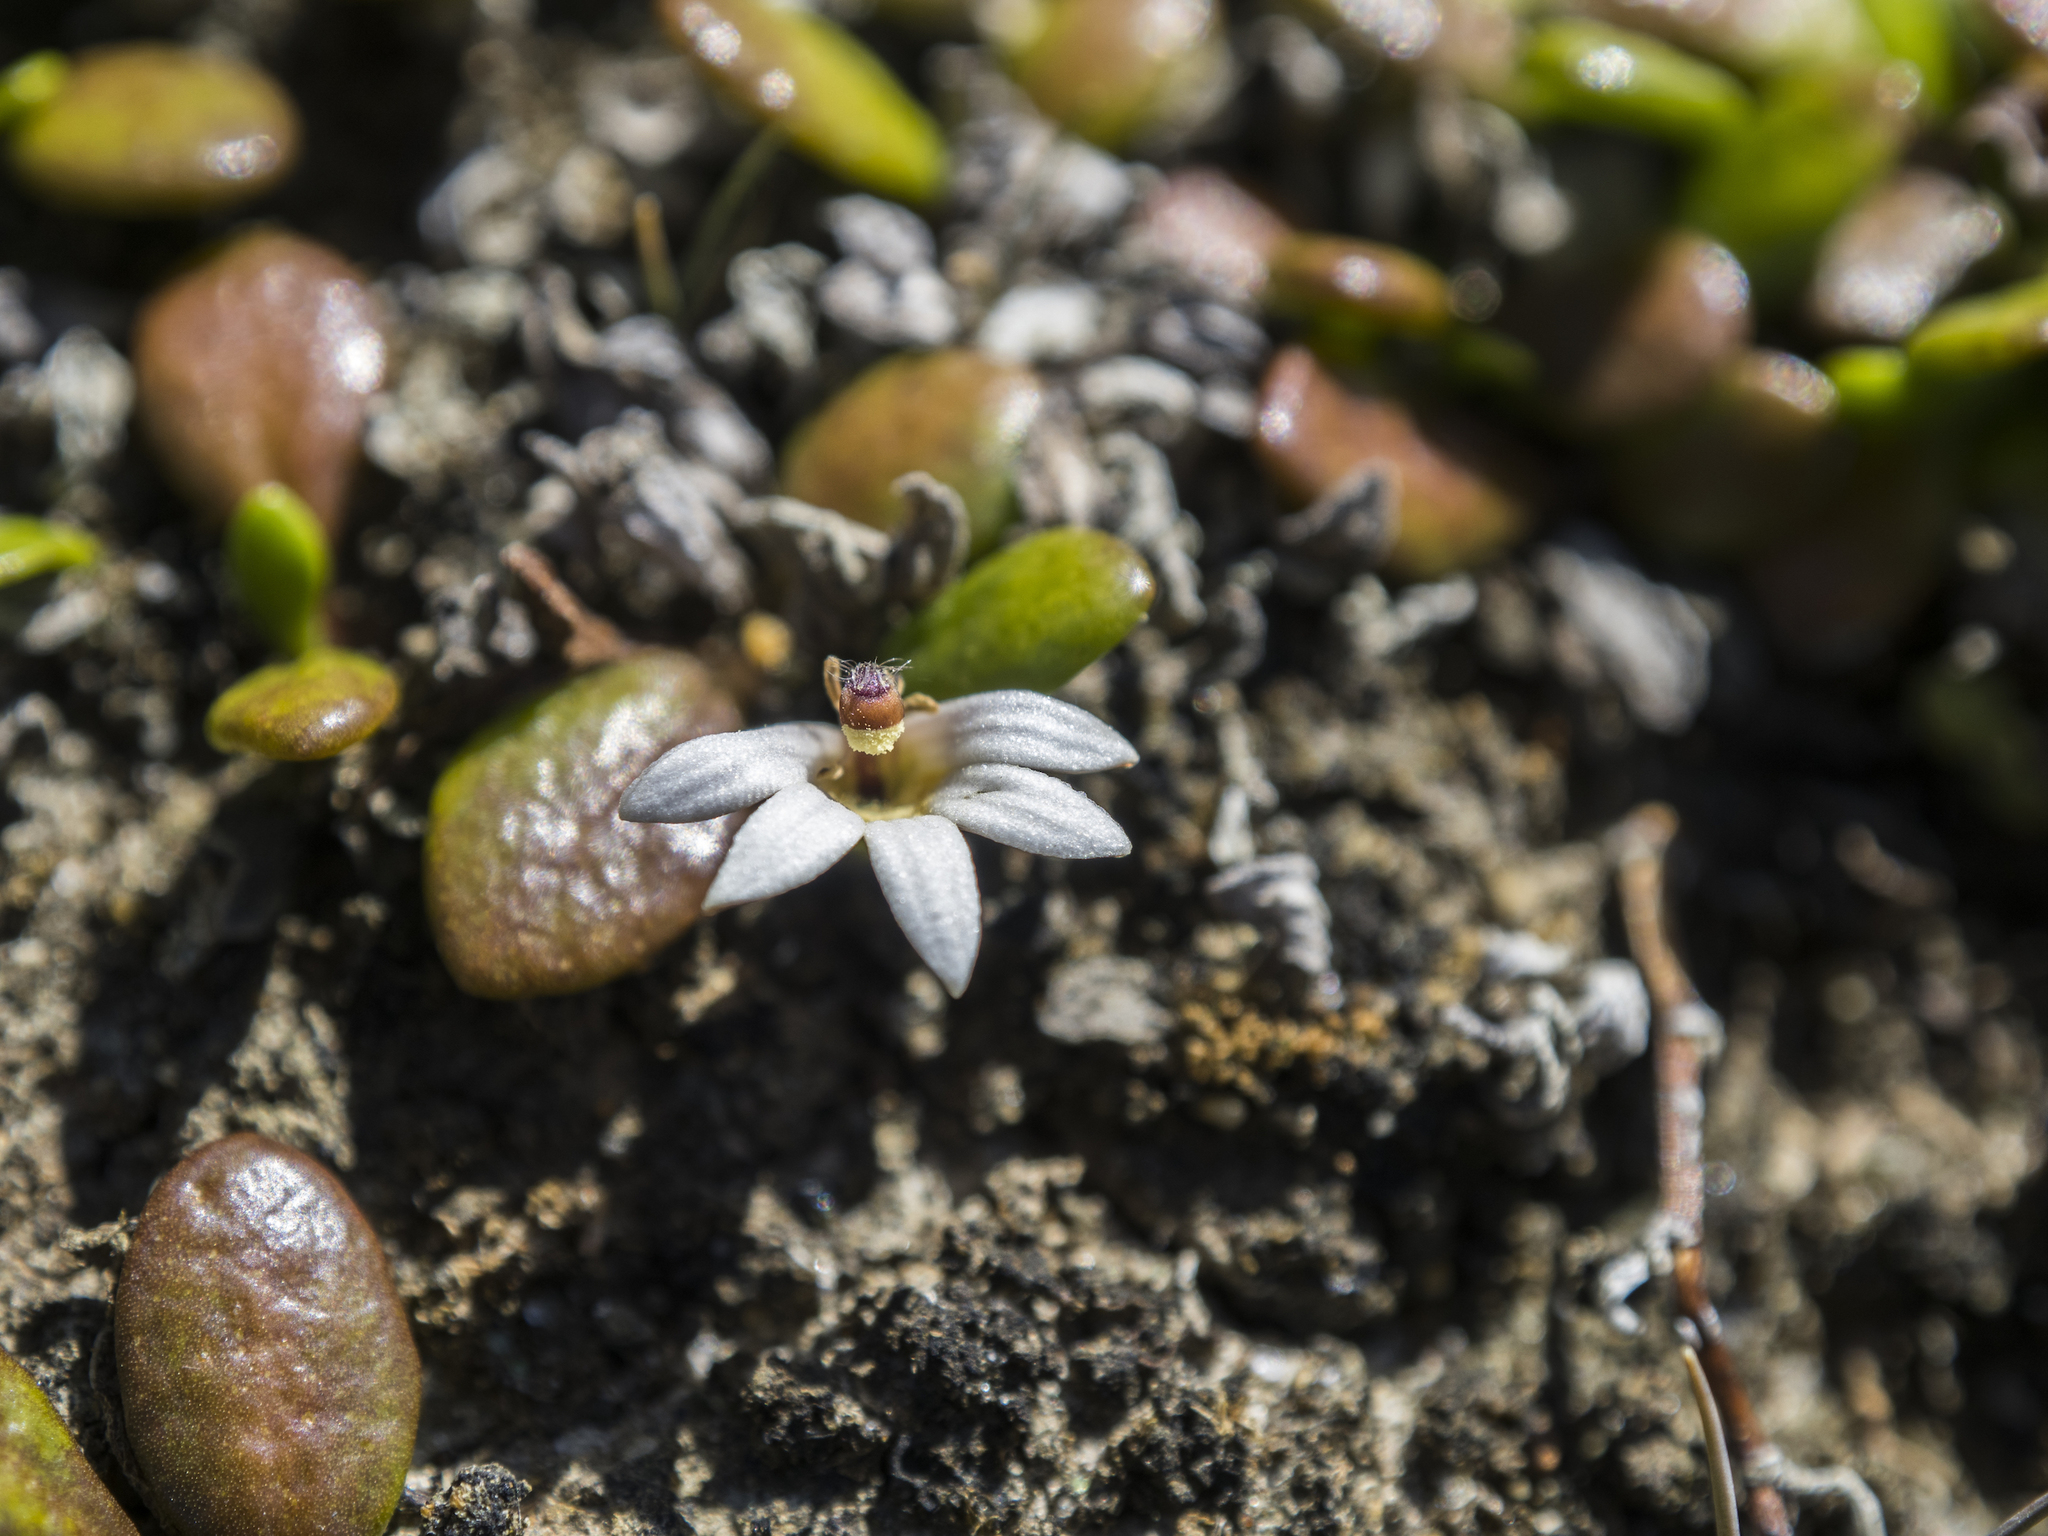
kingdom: Plantae
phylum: Tracheophyta
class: Magnoliopsida
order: Asterales
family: Goodeniaceae
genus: Goodenia
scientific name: Goodenia radicans
